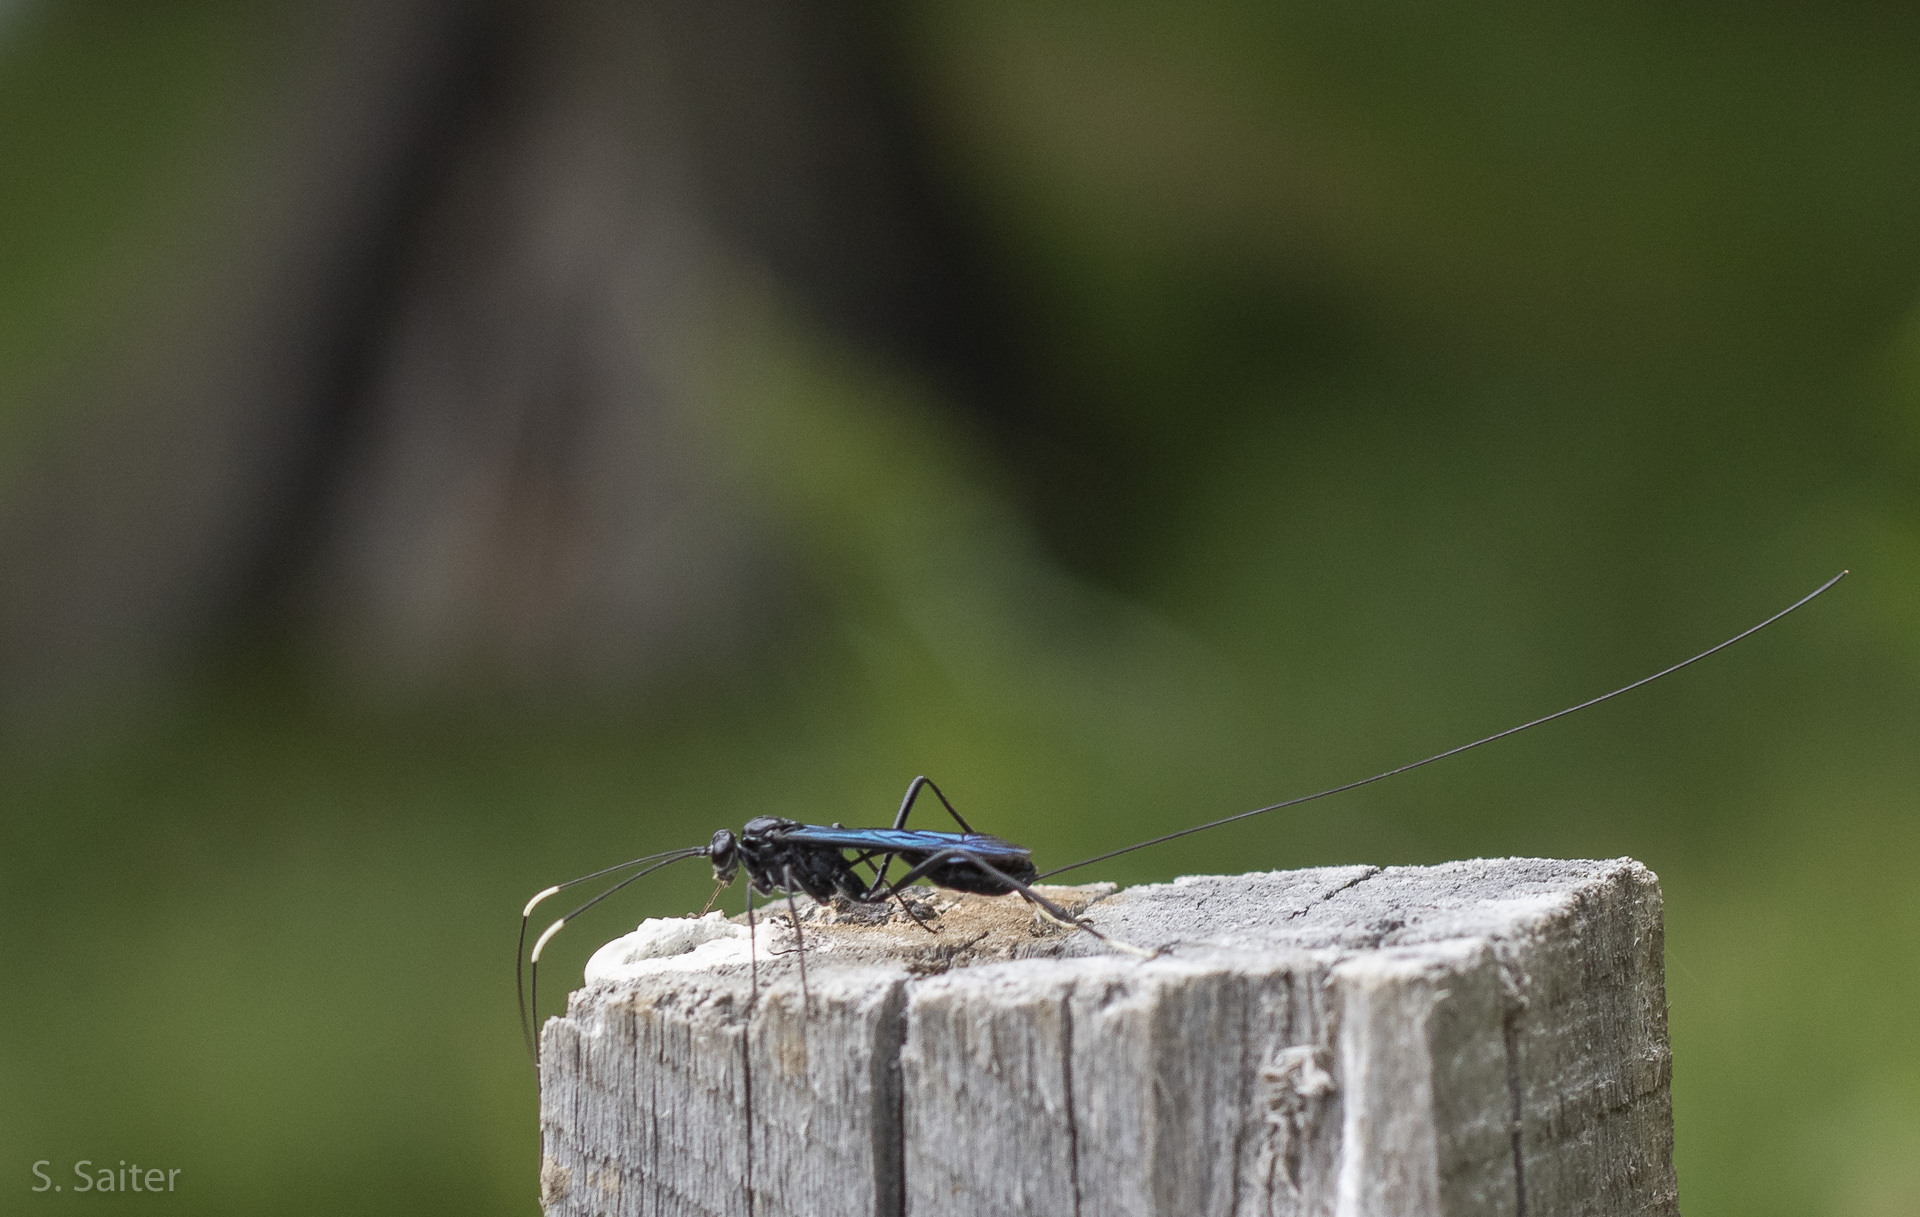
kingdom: Animalia
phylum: Arthropoda
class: Insecta
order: Hymenoptera
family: Ichneumonidae
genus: Dotocryptus
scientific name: Dotocryptus bellicosus
